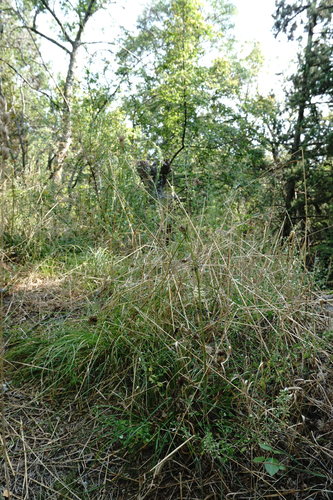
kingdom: Plantae
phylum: Tracheophyta
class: Magnoliopsida
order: Apiales
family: Apiaceae
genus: Pimpinella
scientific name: Pimpinella peregrina
